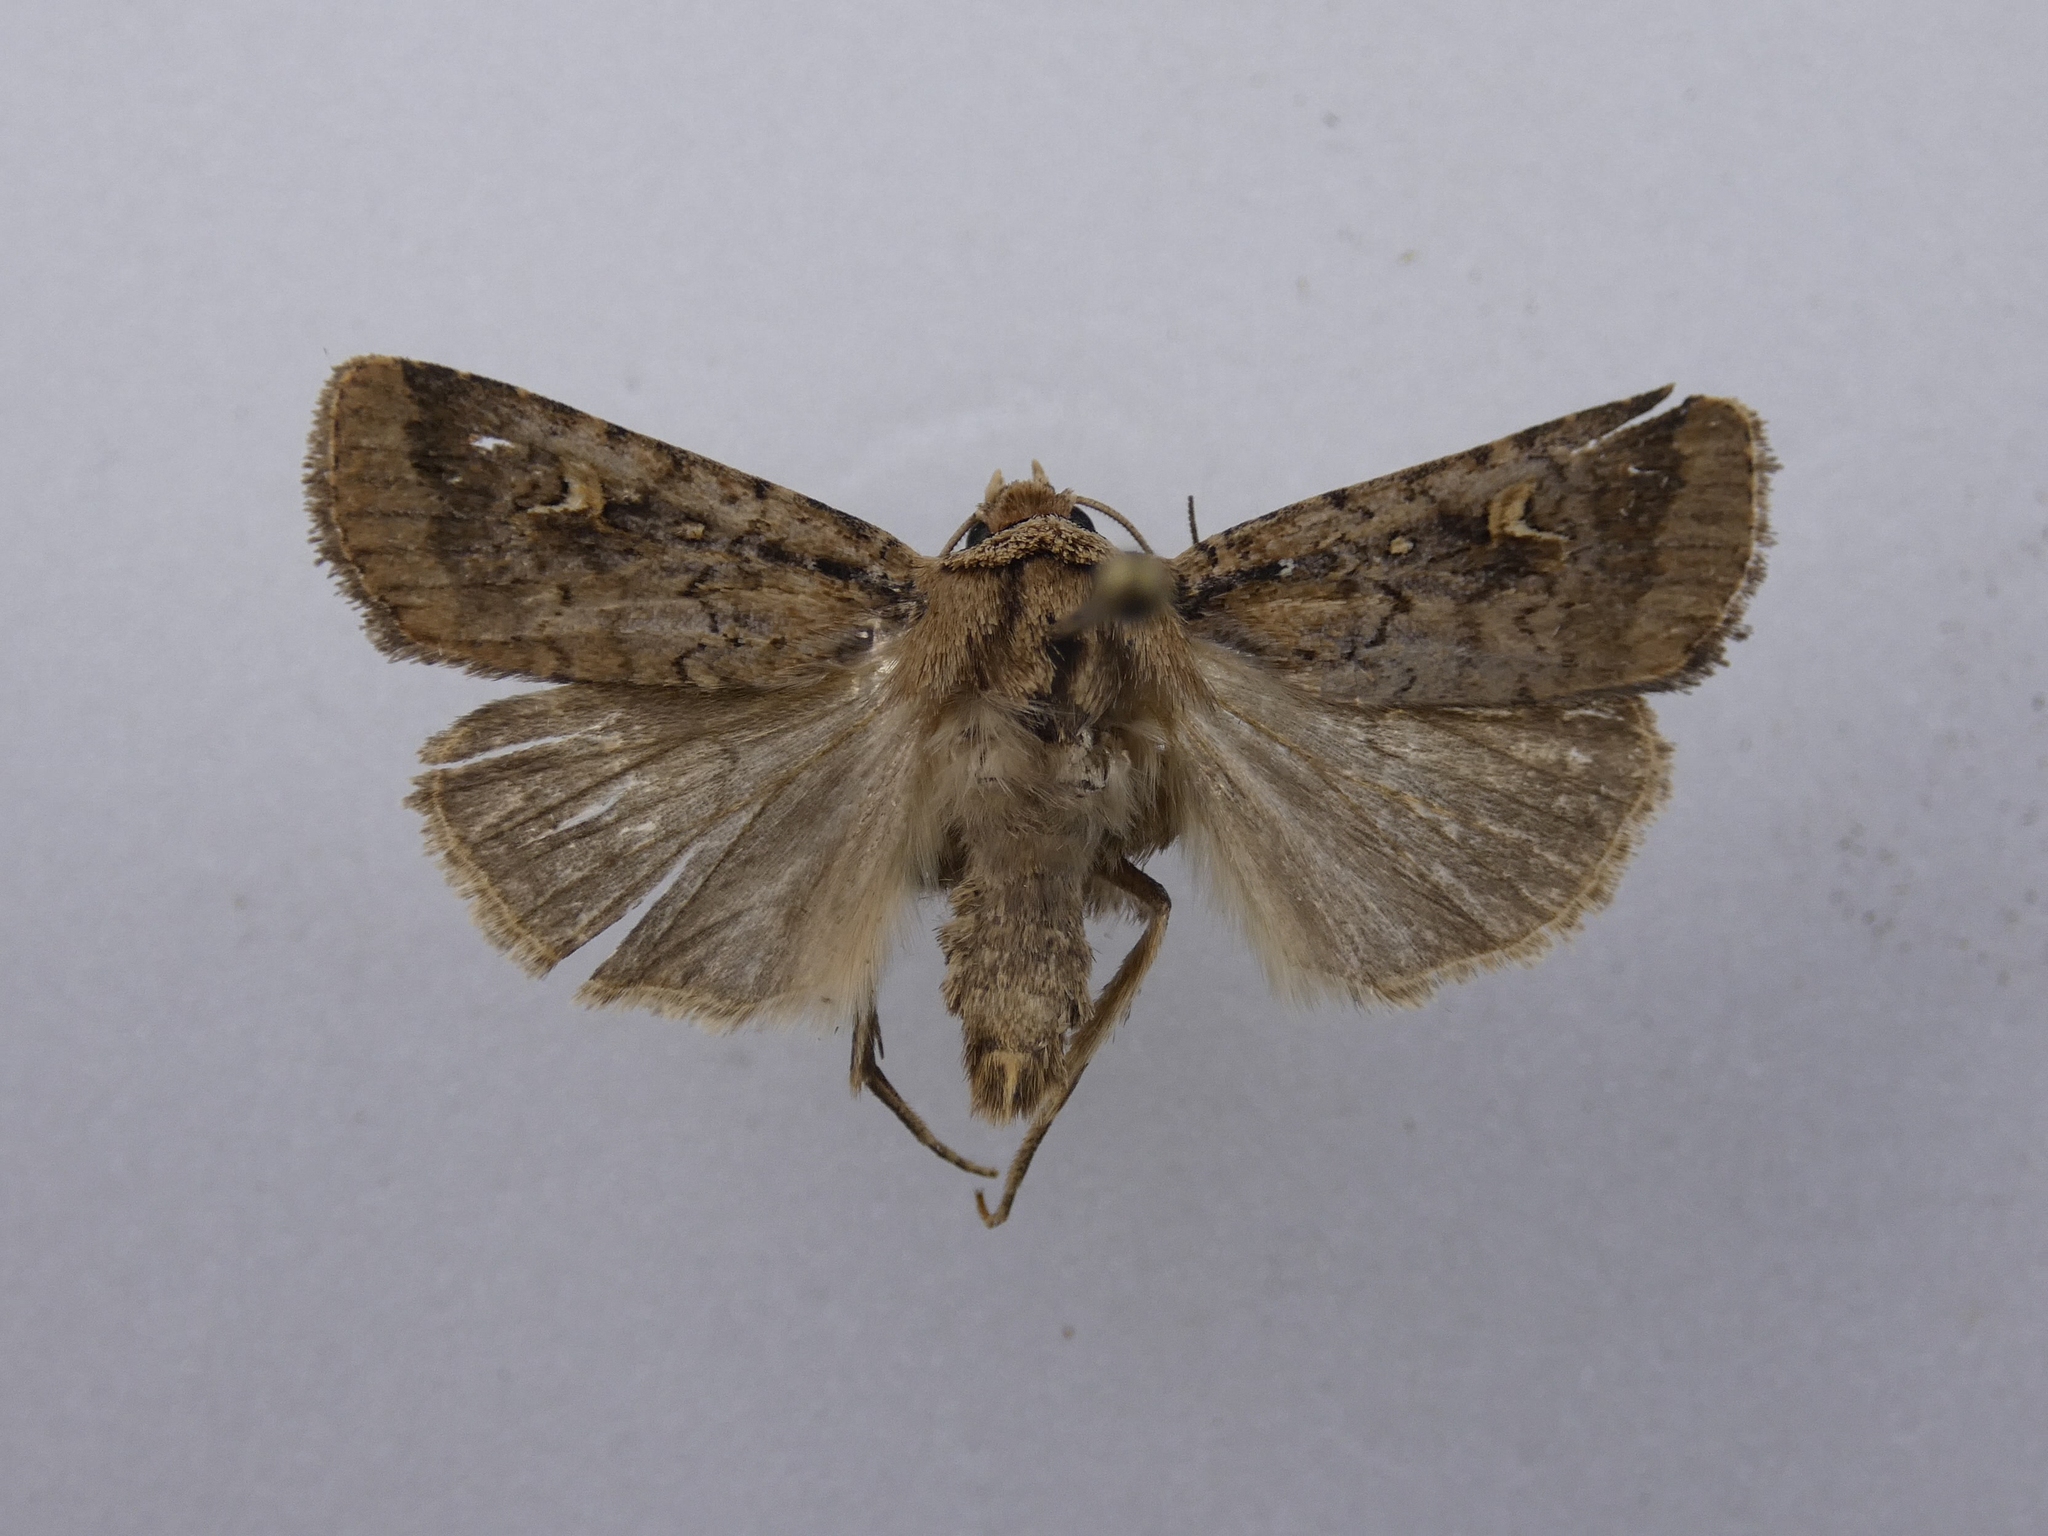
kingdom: Animalia
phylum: Arthropoda
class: Insecta
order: Lepidoptera
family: Noctuidae
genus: Proteuxoa
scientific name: Proteuxoa tetronycha
